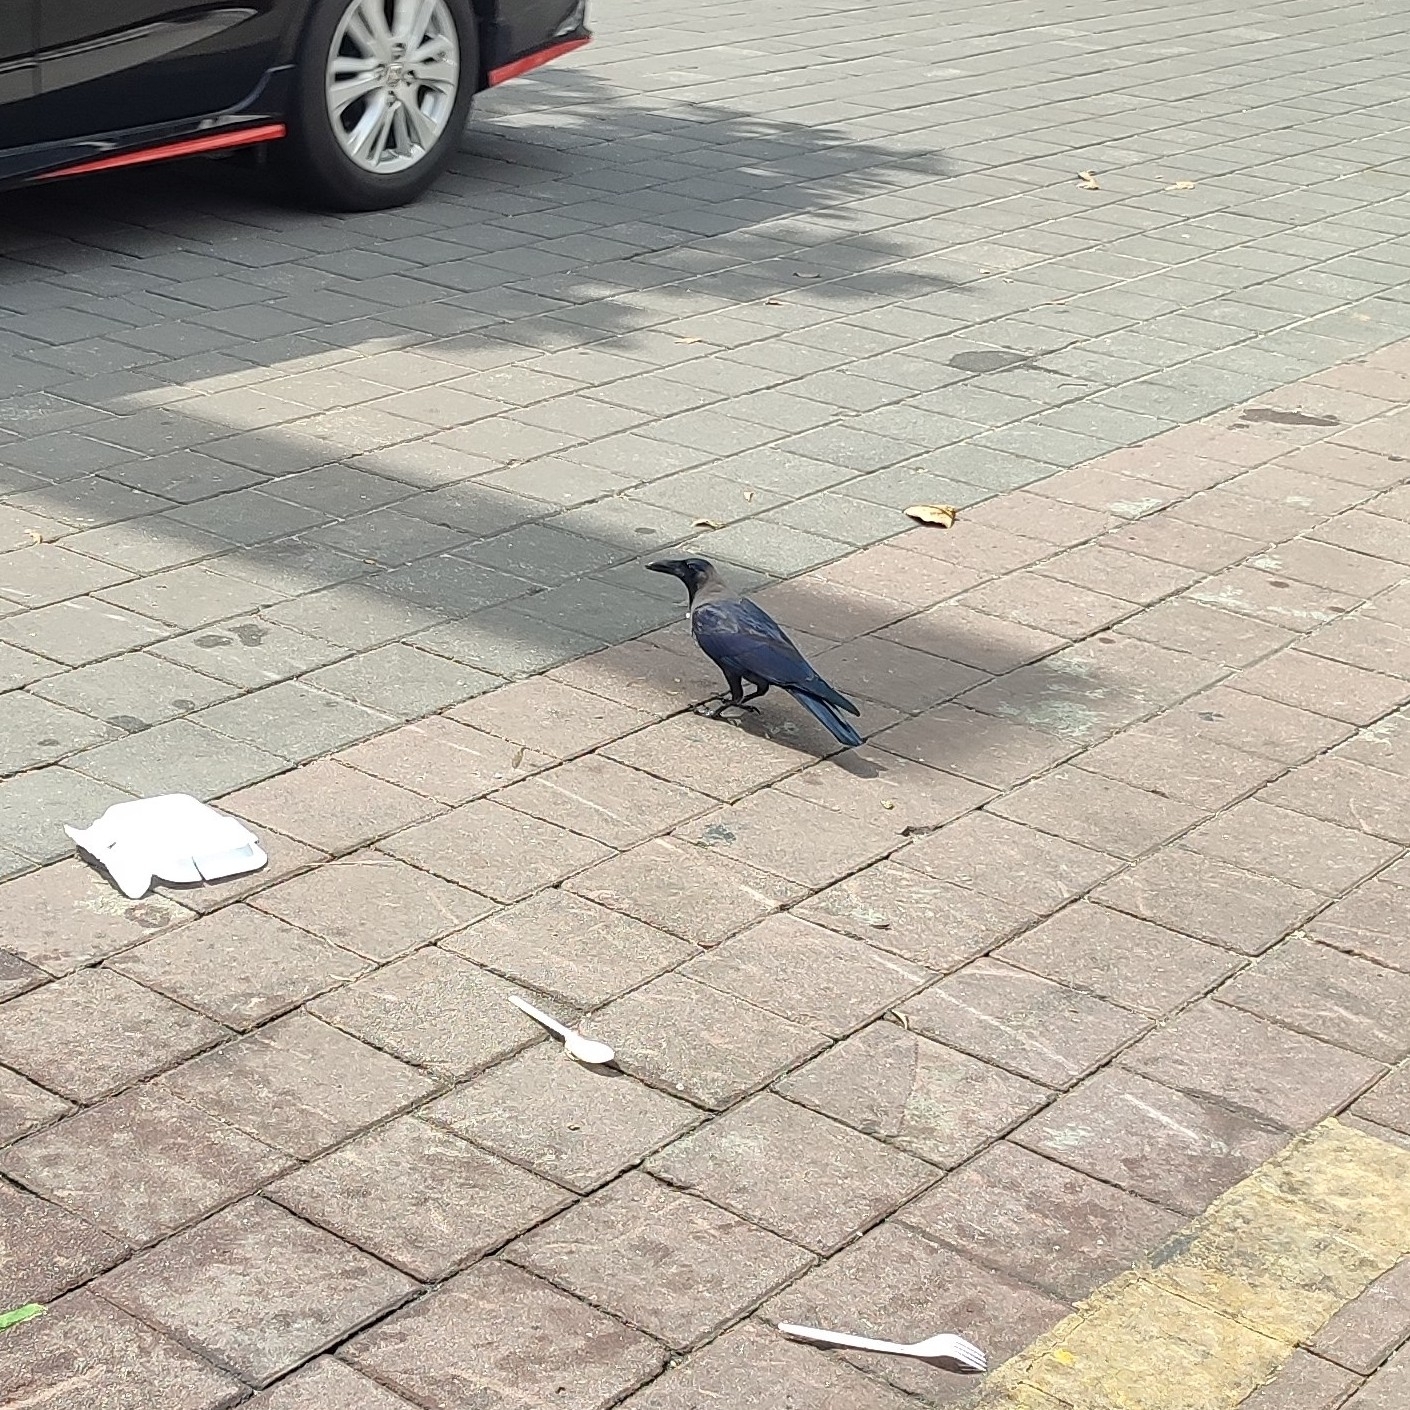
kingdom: Animalia
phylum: Chordata
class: Aves
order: Passeriformes
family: Corvidae
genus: Corvus
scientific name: Corvus splendens
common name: House crow
